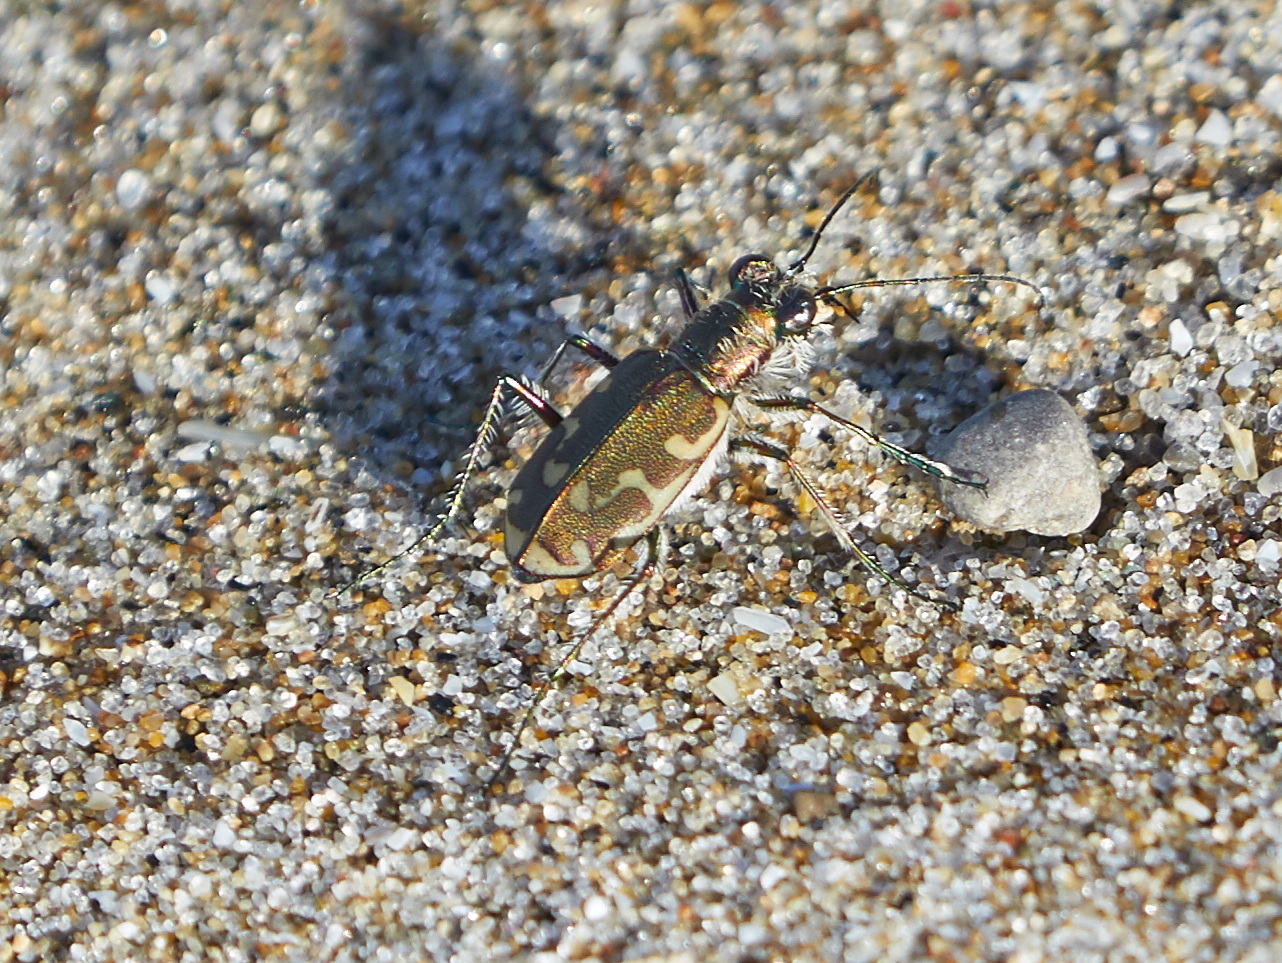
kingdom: Animalia
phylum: Arthropoda
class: Insecta
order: Coleoptera
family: Carabidae
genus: Cicindela
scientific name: Cicindela repanda
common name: Bronzed tiger beetle
